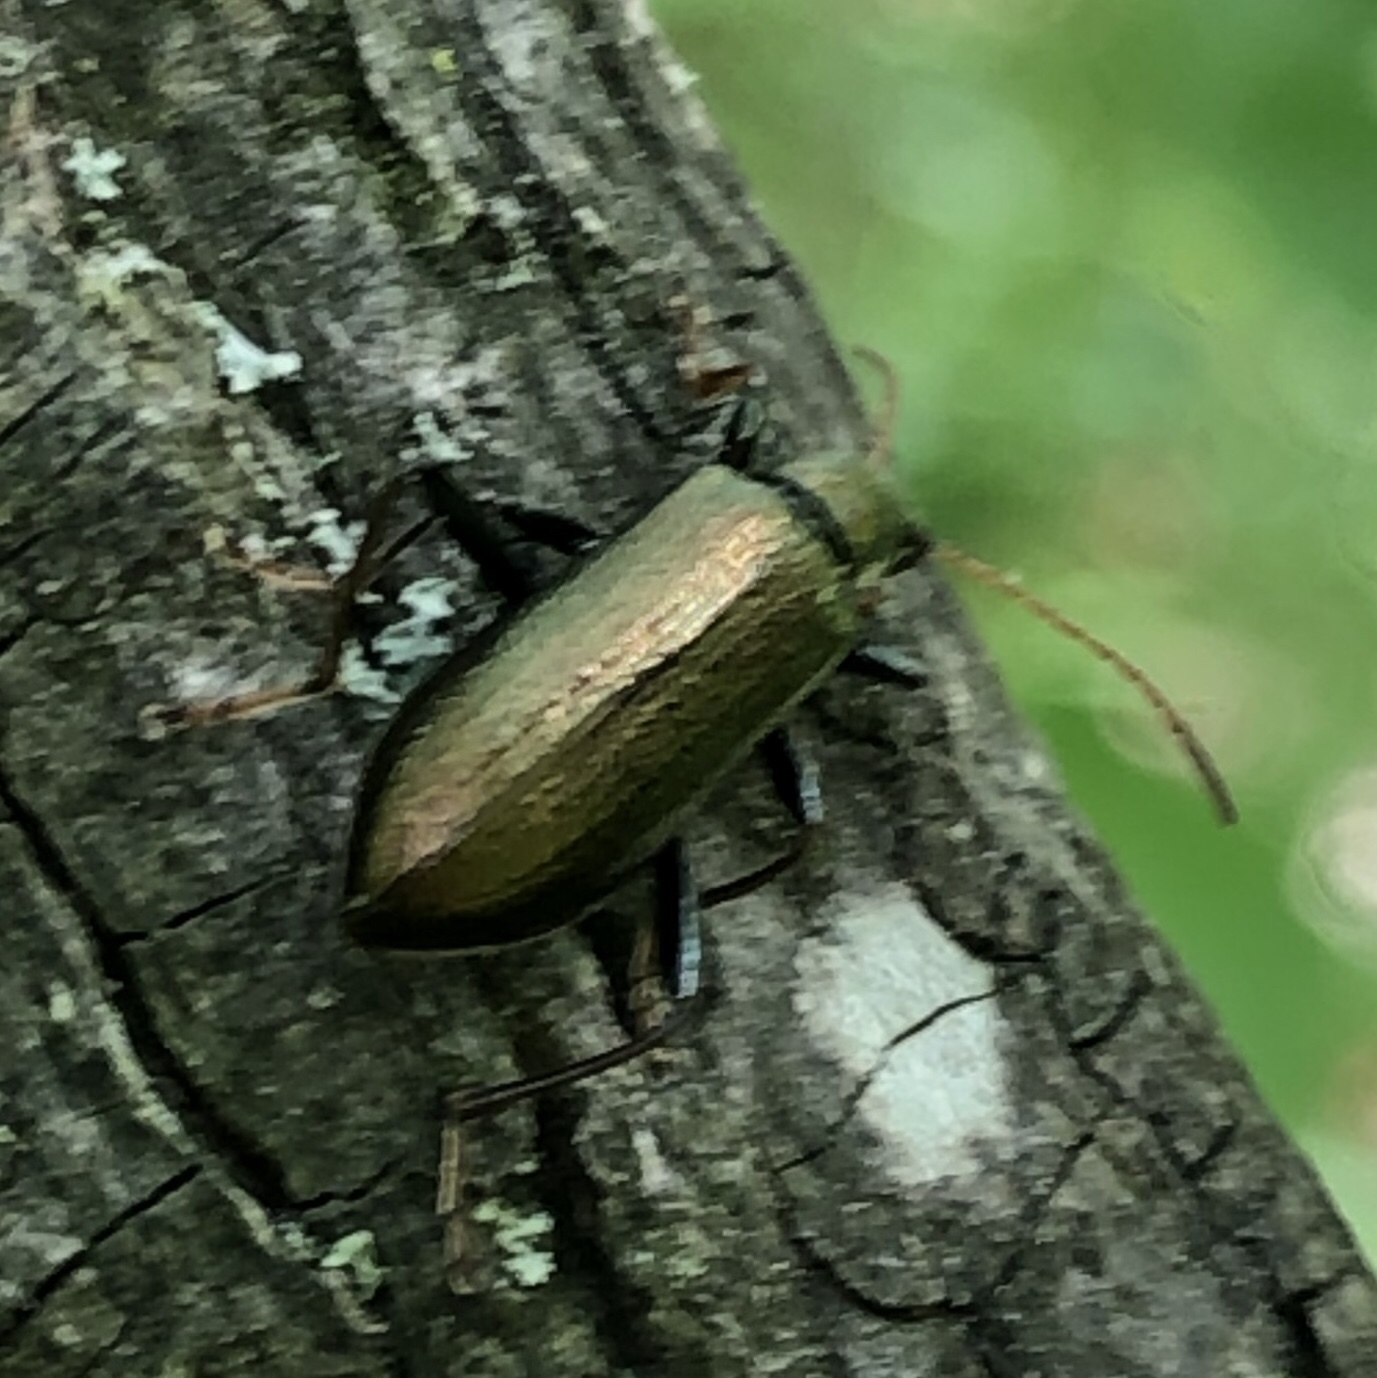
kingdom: Animalia
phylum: Arthropoda
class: Insecta
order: Coleoptera
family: Tenebrionidae
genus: Arthromacra
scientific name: Arthromacra aenea
